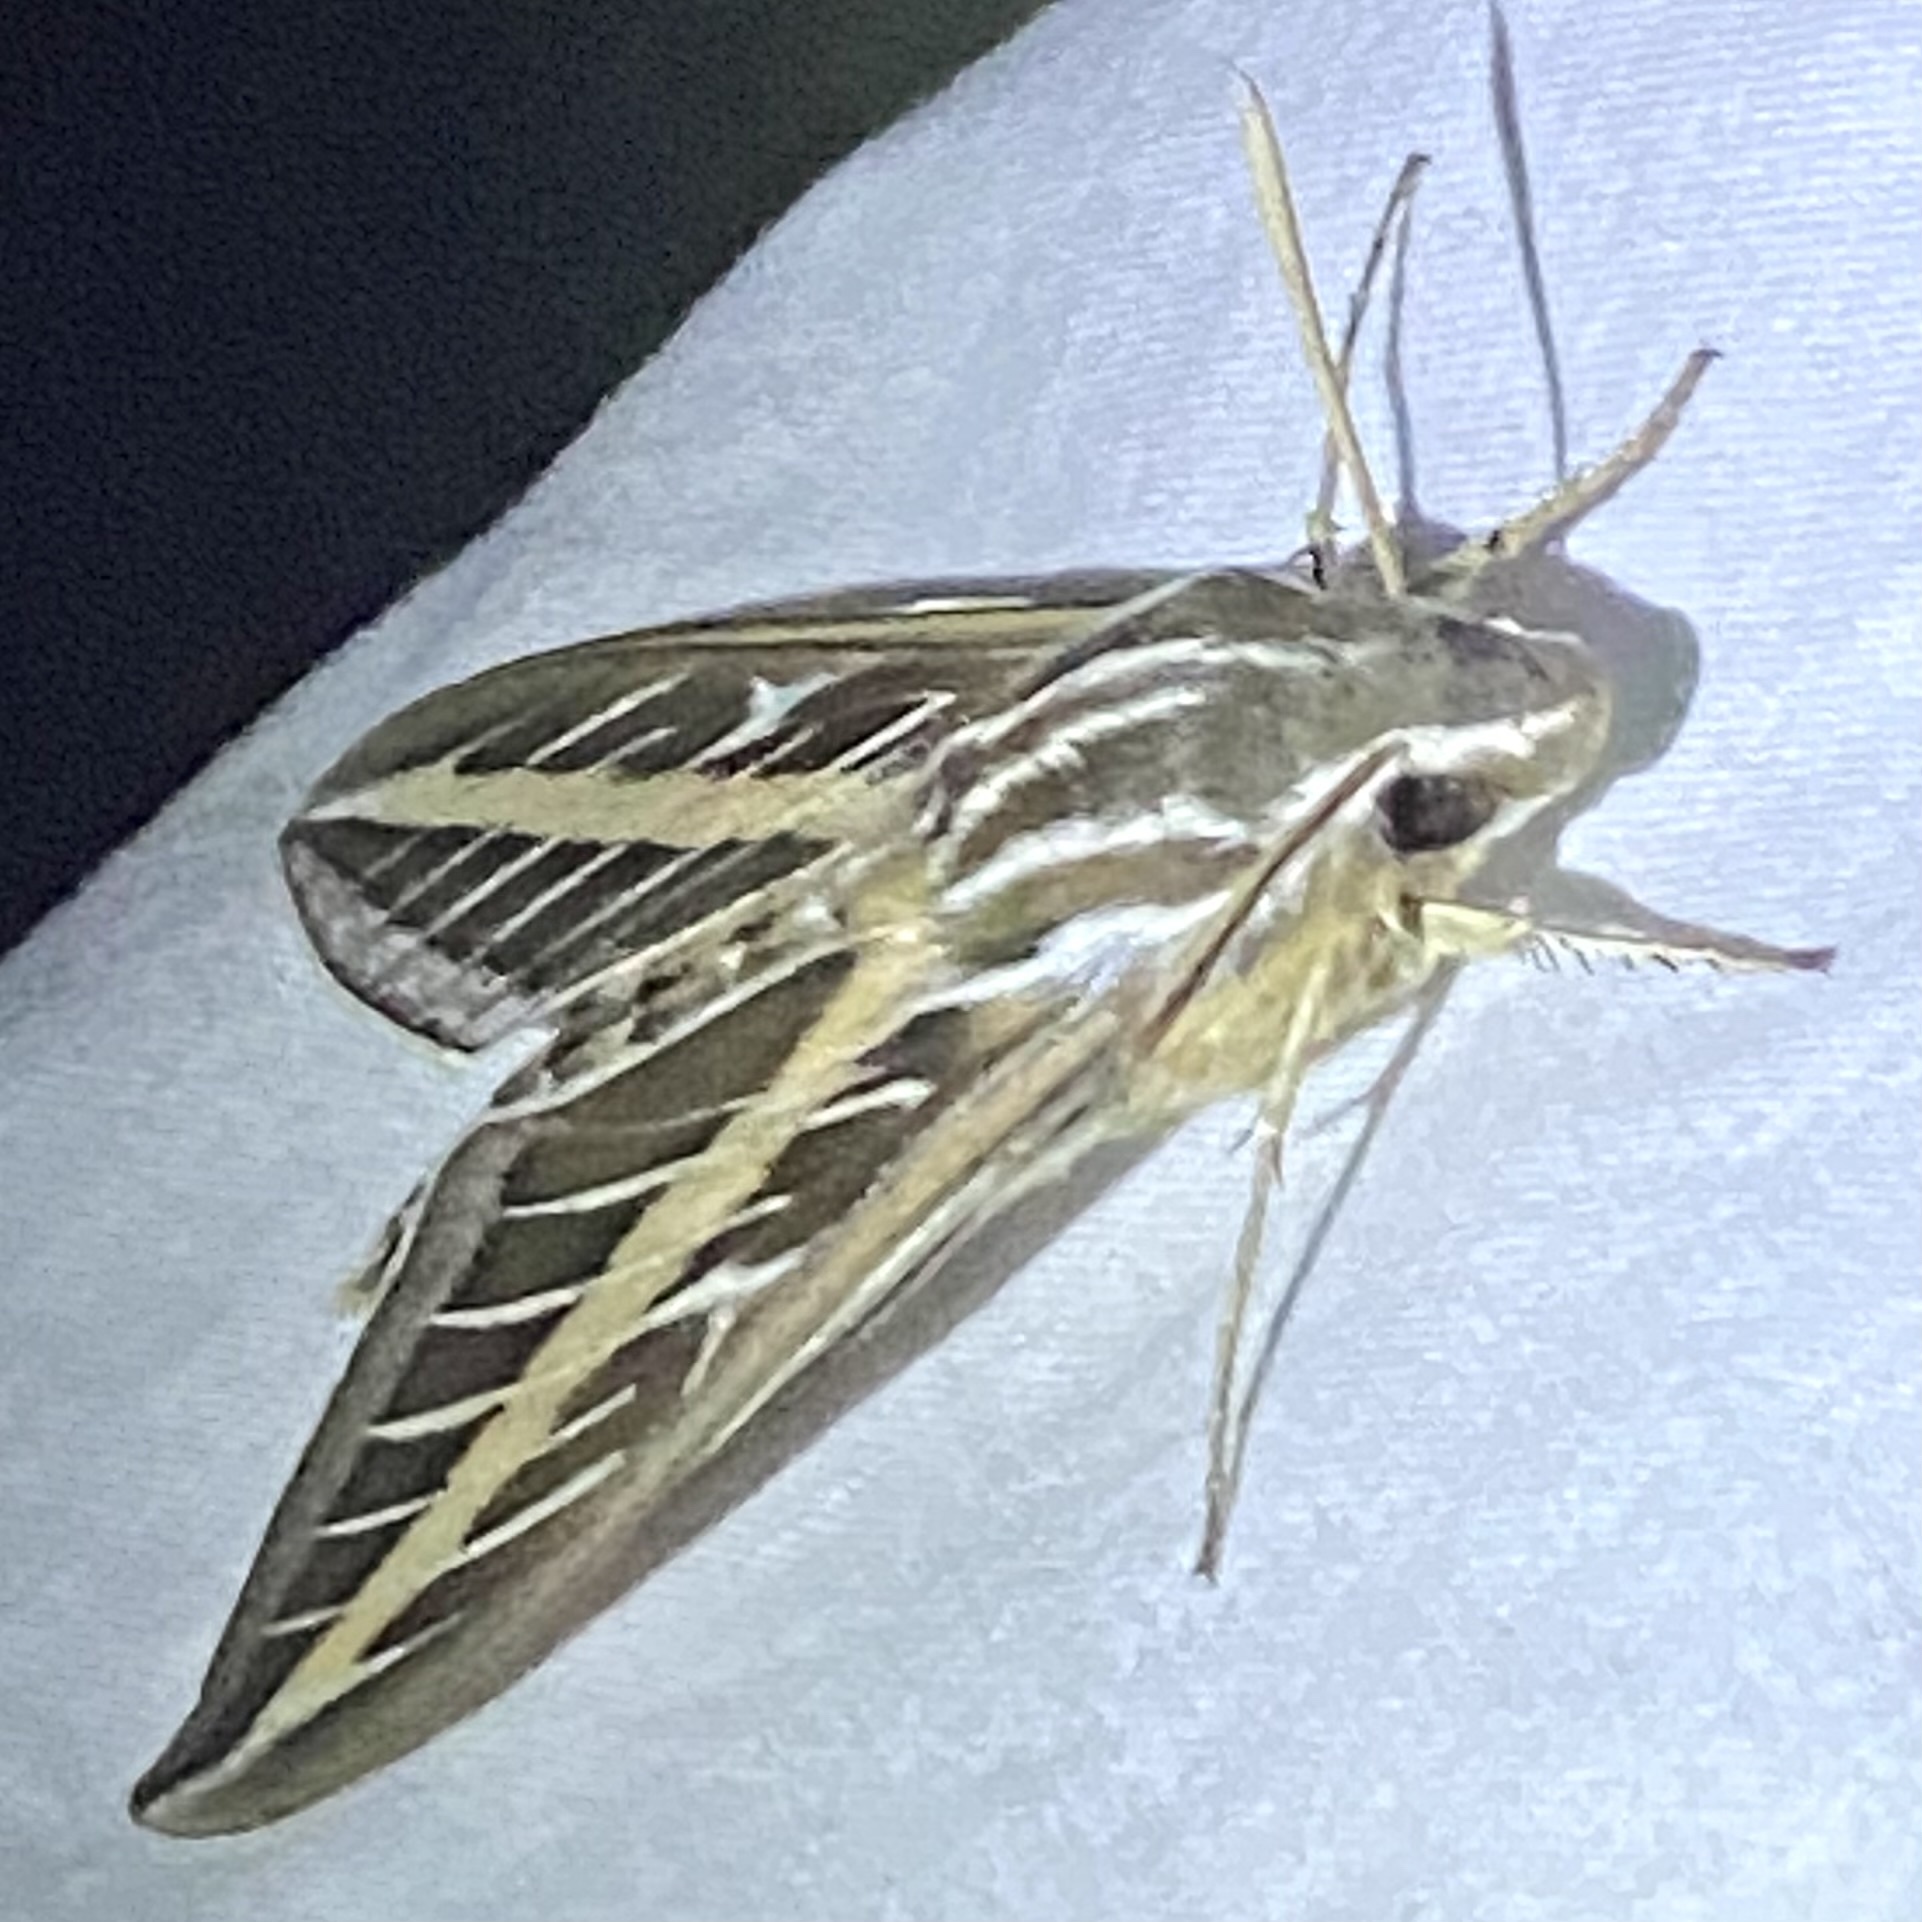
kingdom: Animalia
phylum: Arthropoda
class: Insecta
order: Lepidoptera
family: Sphingidae
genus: Hyles
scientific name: Hyles lineata
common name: White-lined sphinx
